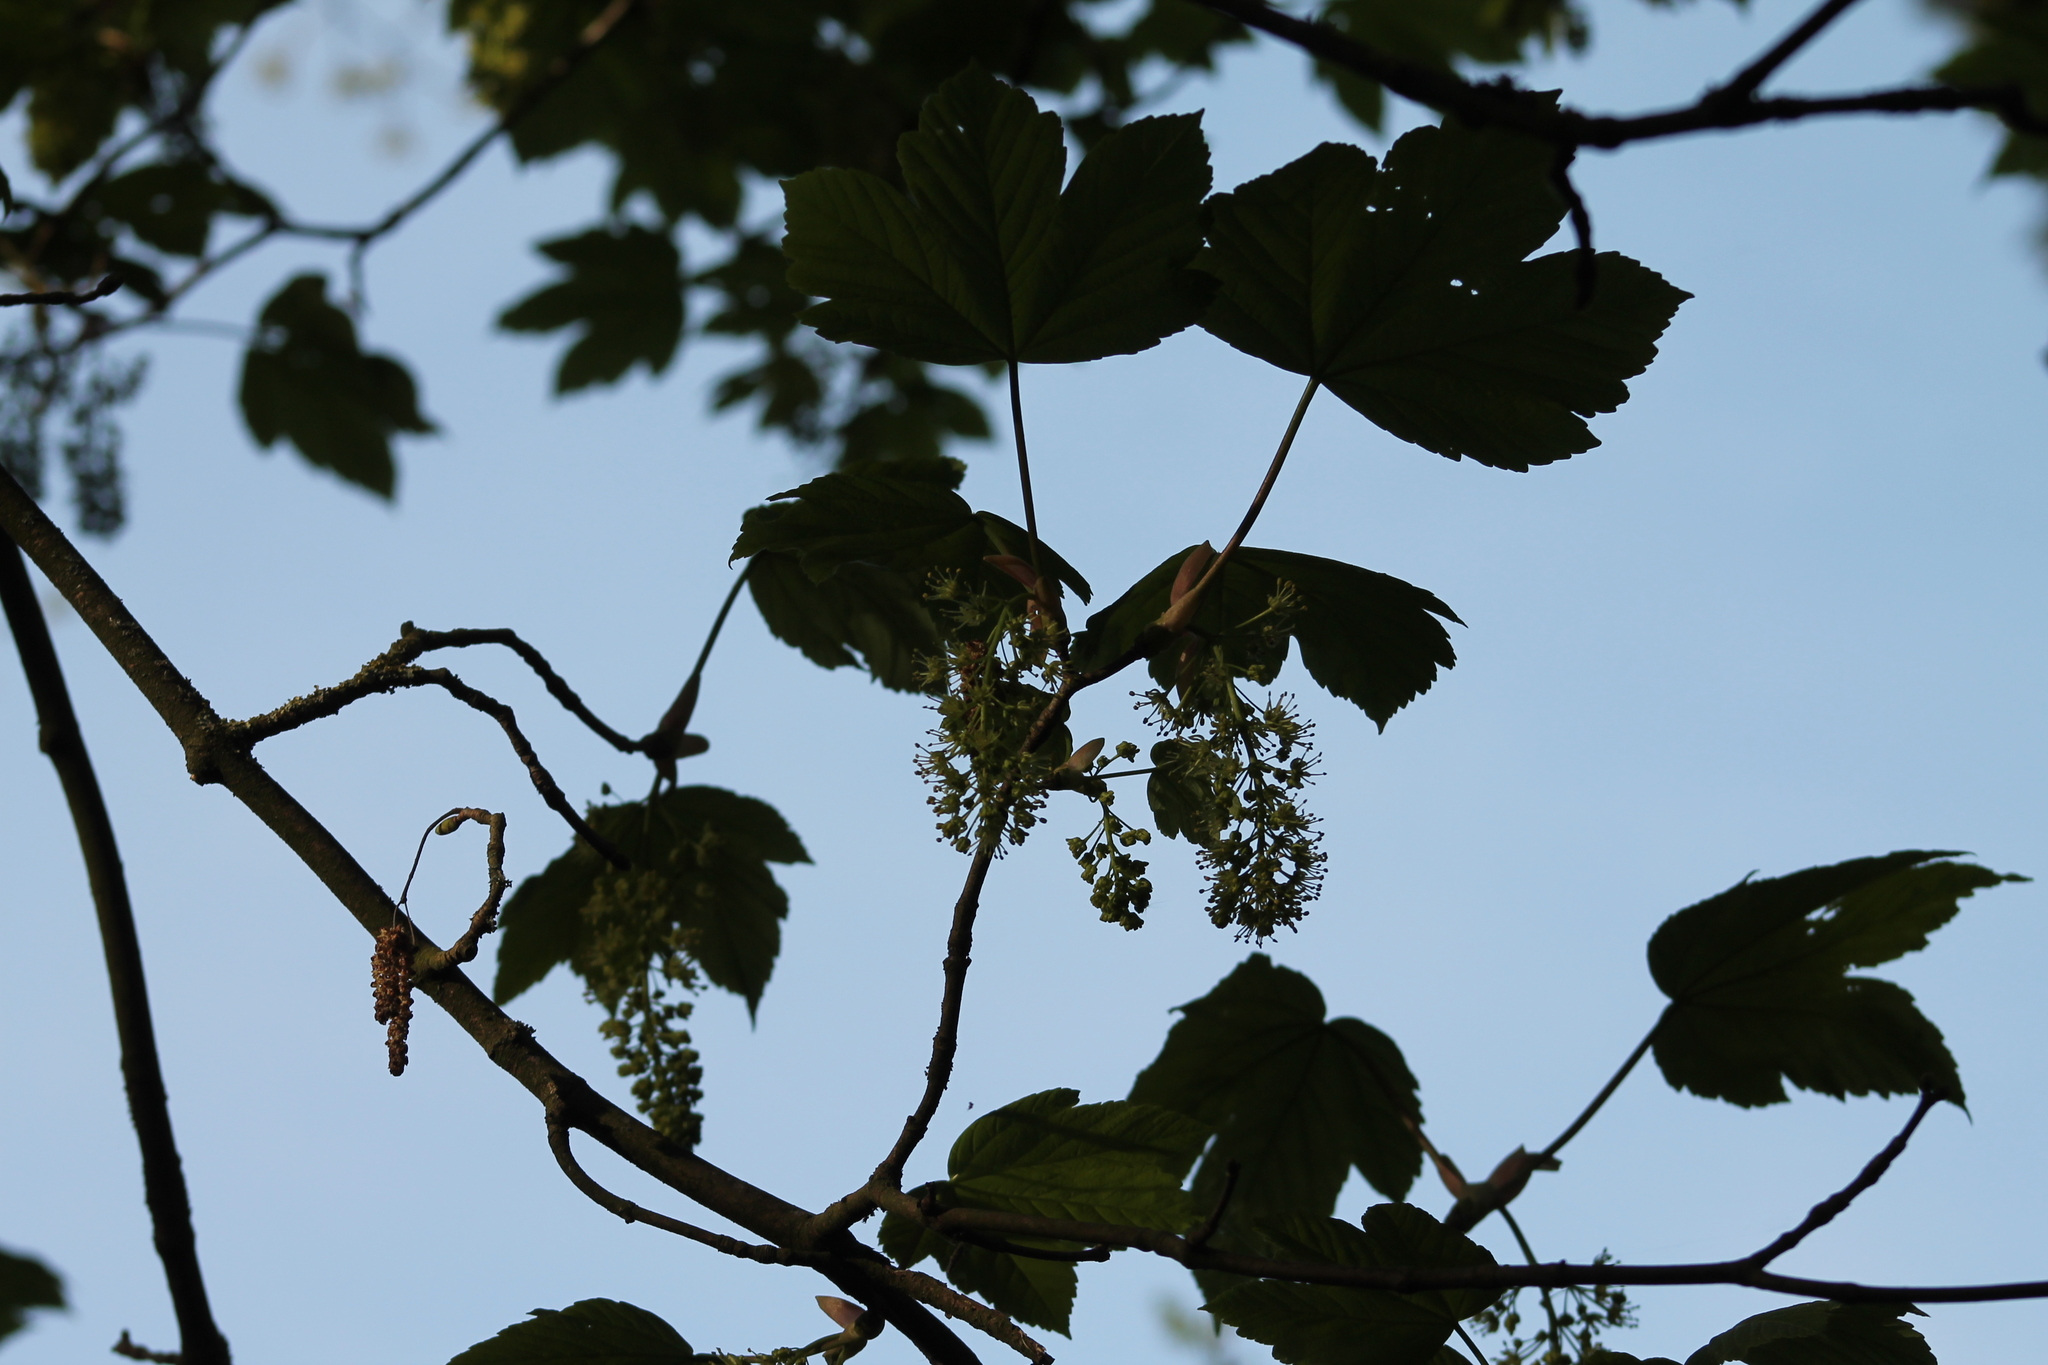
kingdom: Plantae
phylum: Tracheophyta
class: Magnoliopsida
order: Sapindales
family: Sapindaceae
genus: Acer
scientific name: Acer pseudoplatanus
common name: Sycamore
